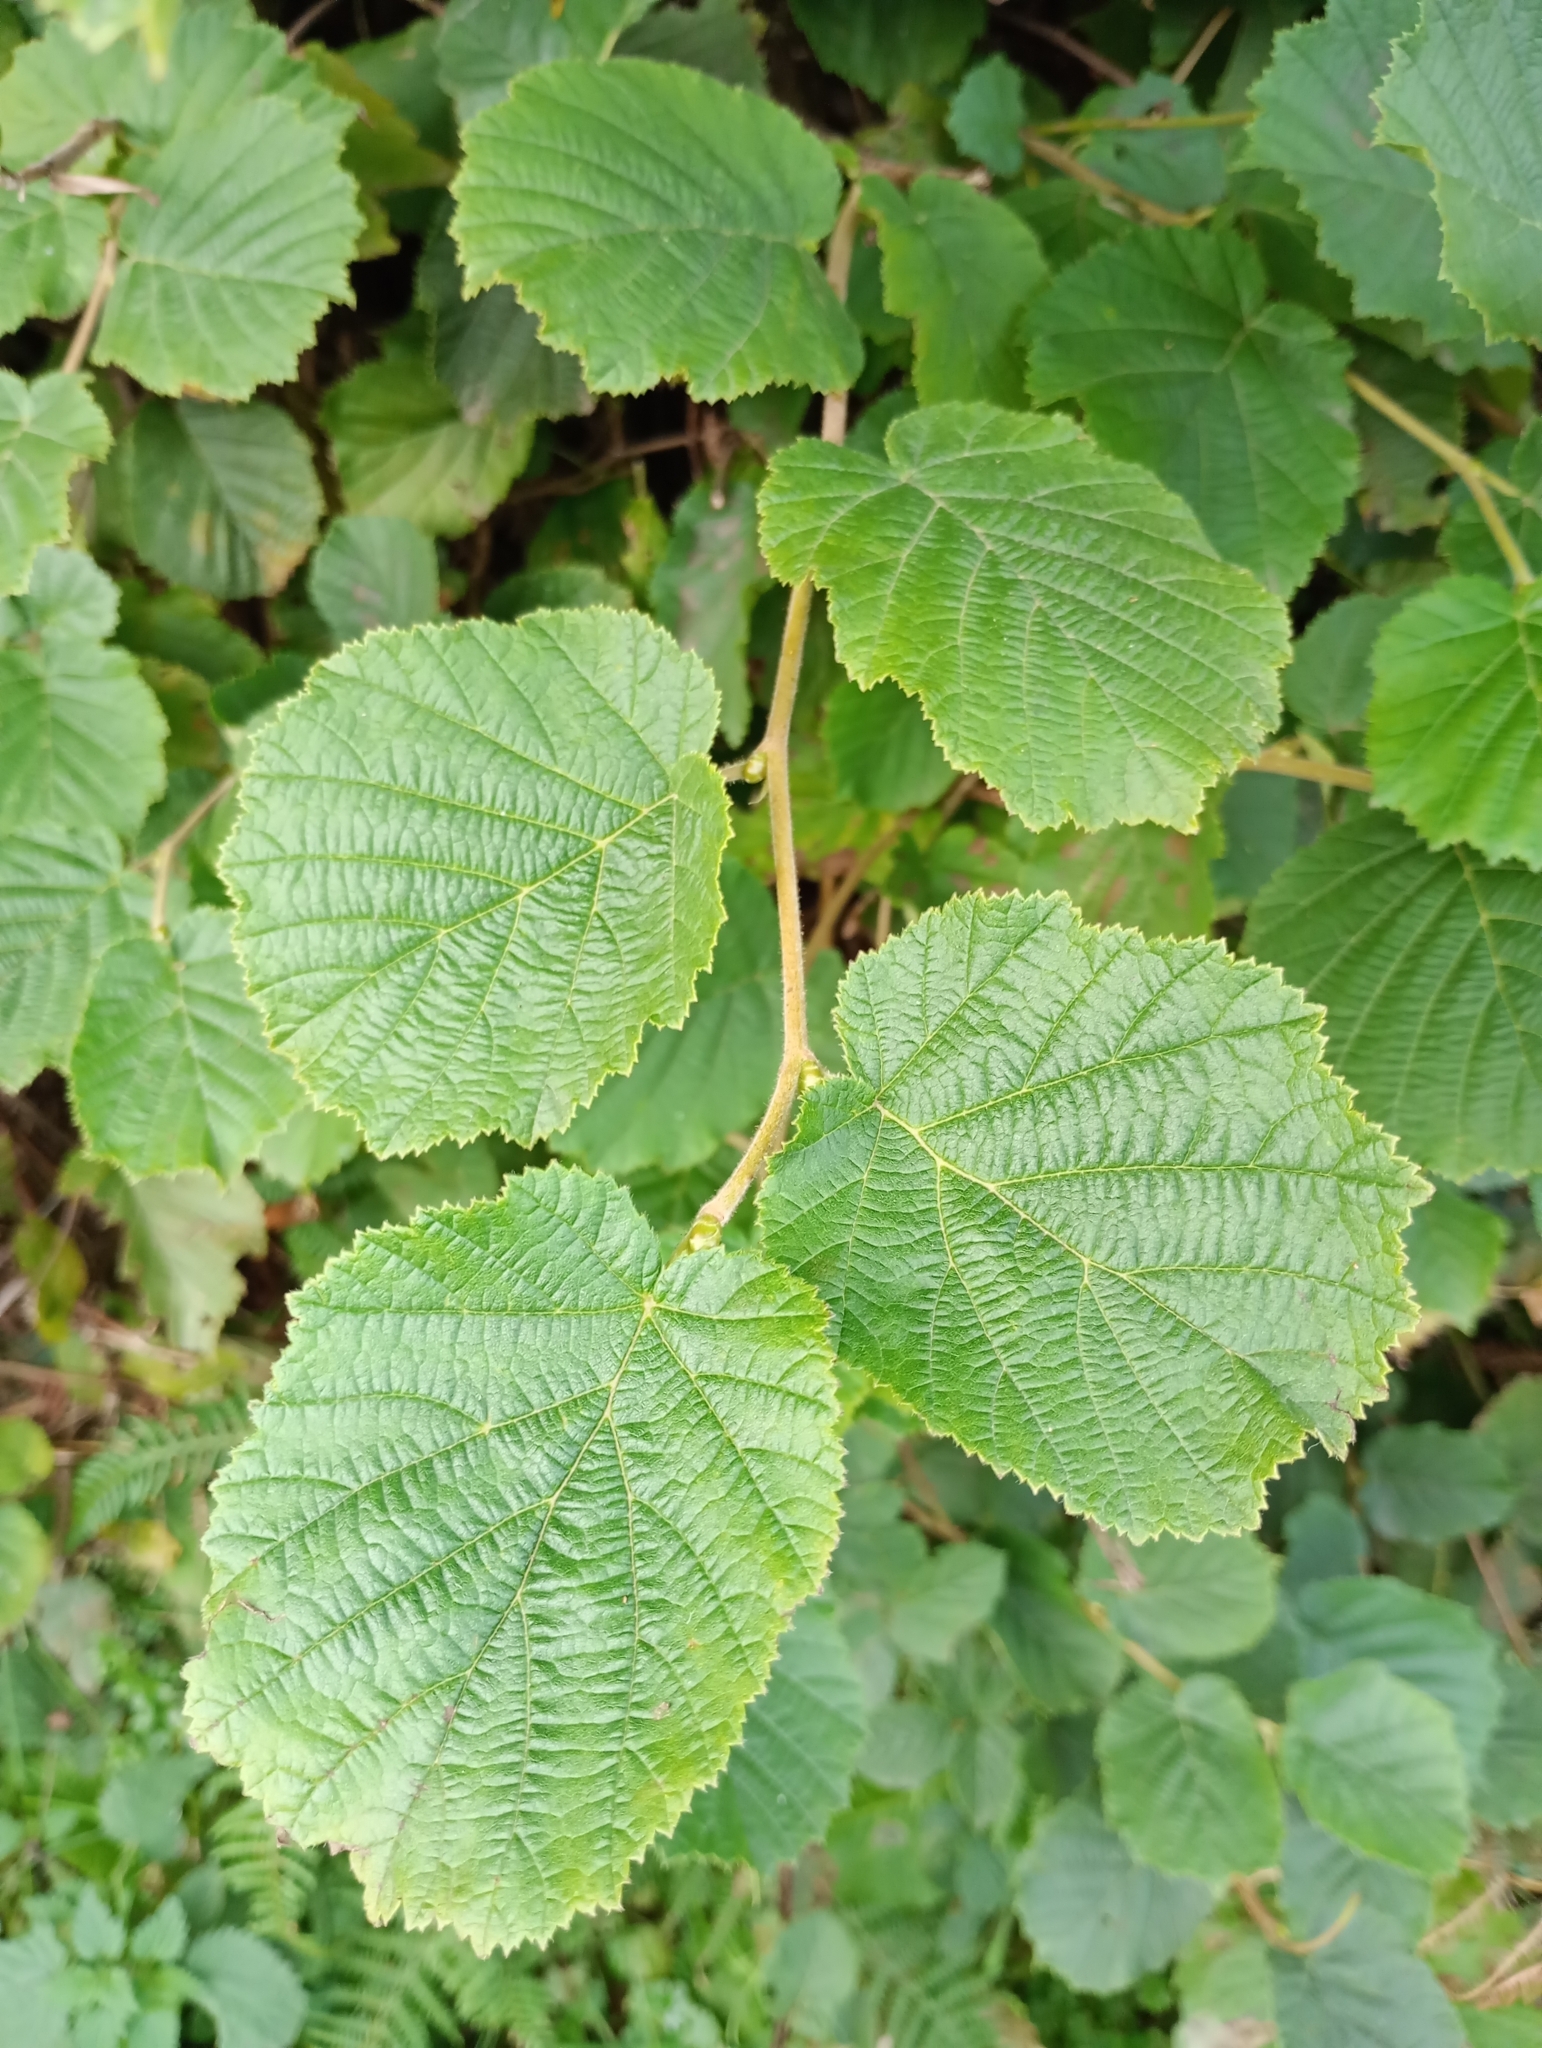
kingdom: Plantae
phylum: Tracheophyta
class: Magnoliopsida
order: Fagales
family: Betulaceae
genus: Corylus
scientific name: Corylus avellana
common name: European hazel
